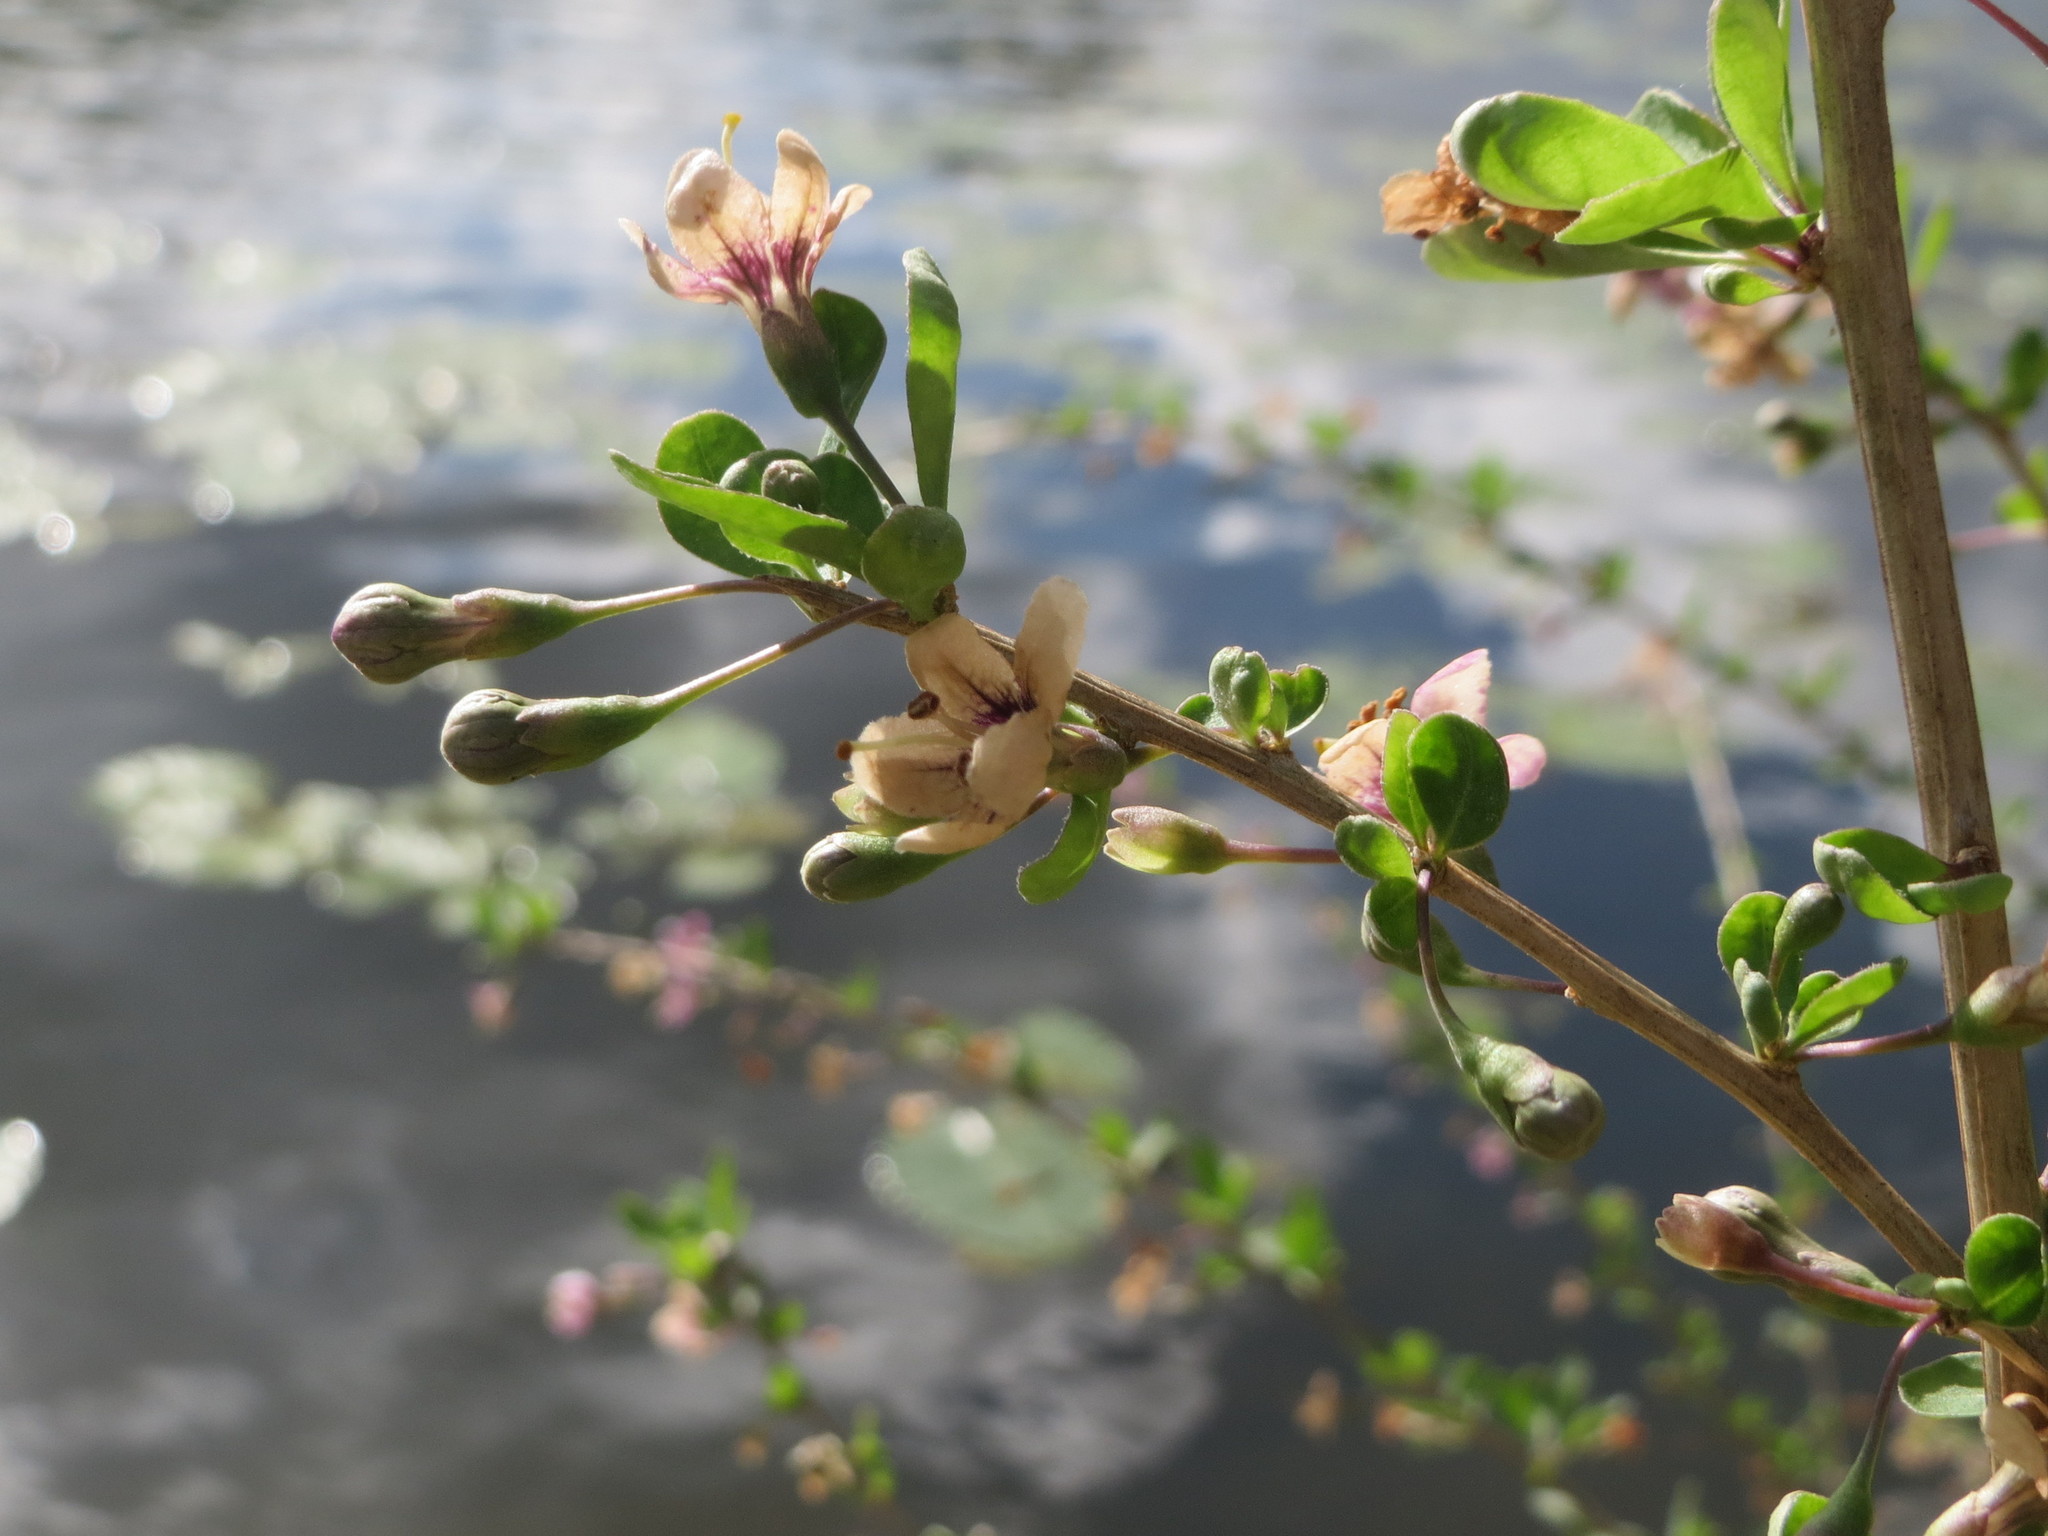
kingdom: Plantae
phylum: Tracheophyta
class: Magnoliopsida
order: Solanales
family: Solanaceae
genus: Lycium
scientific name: Lycium barbarum
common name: Duke of argyll's teaplant
